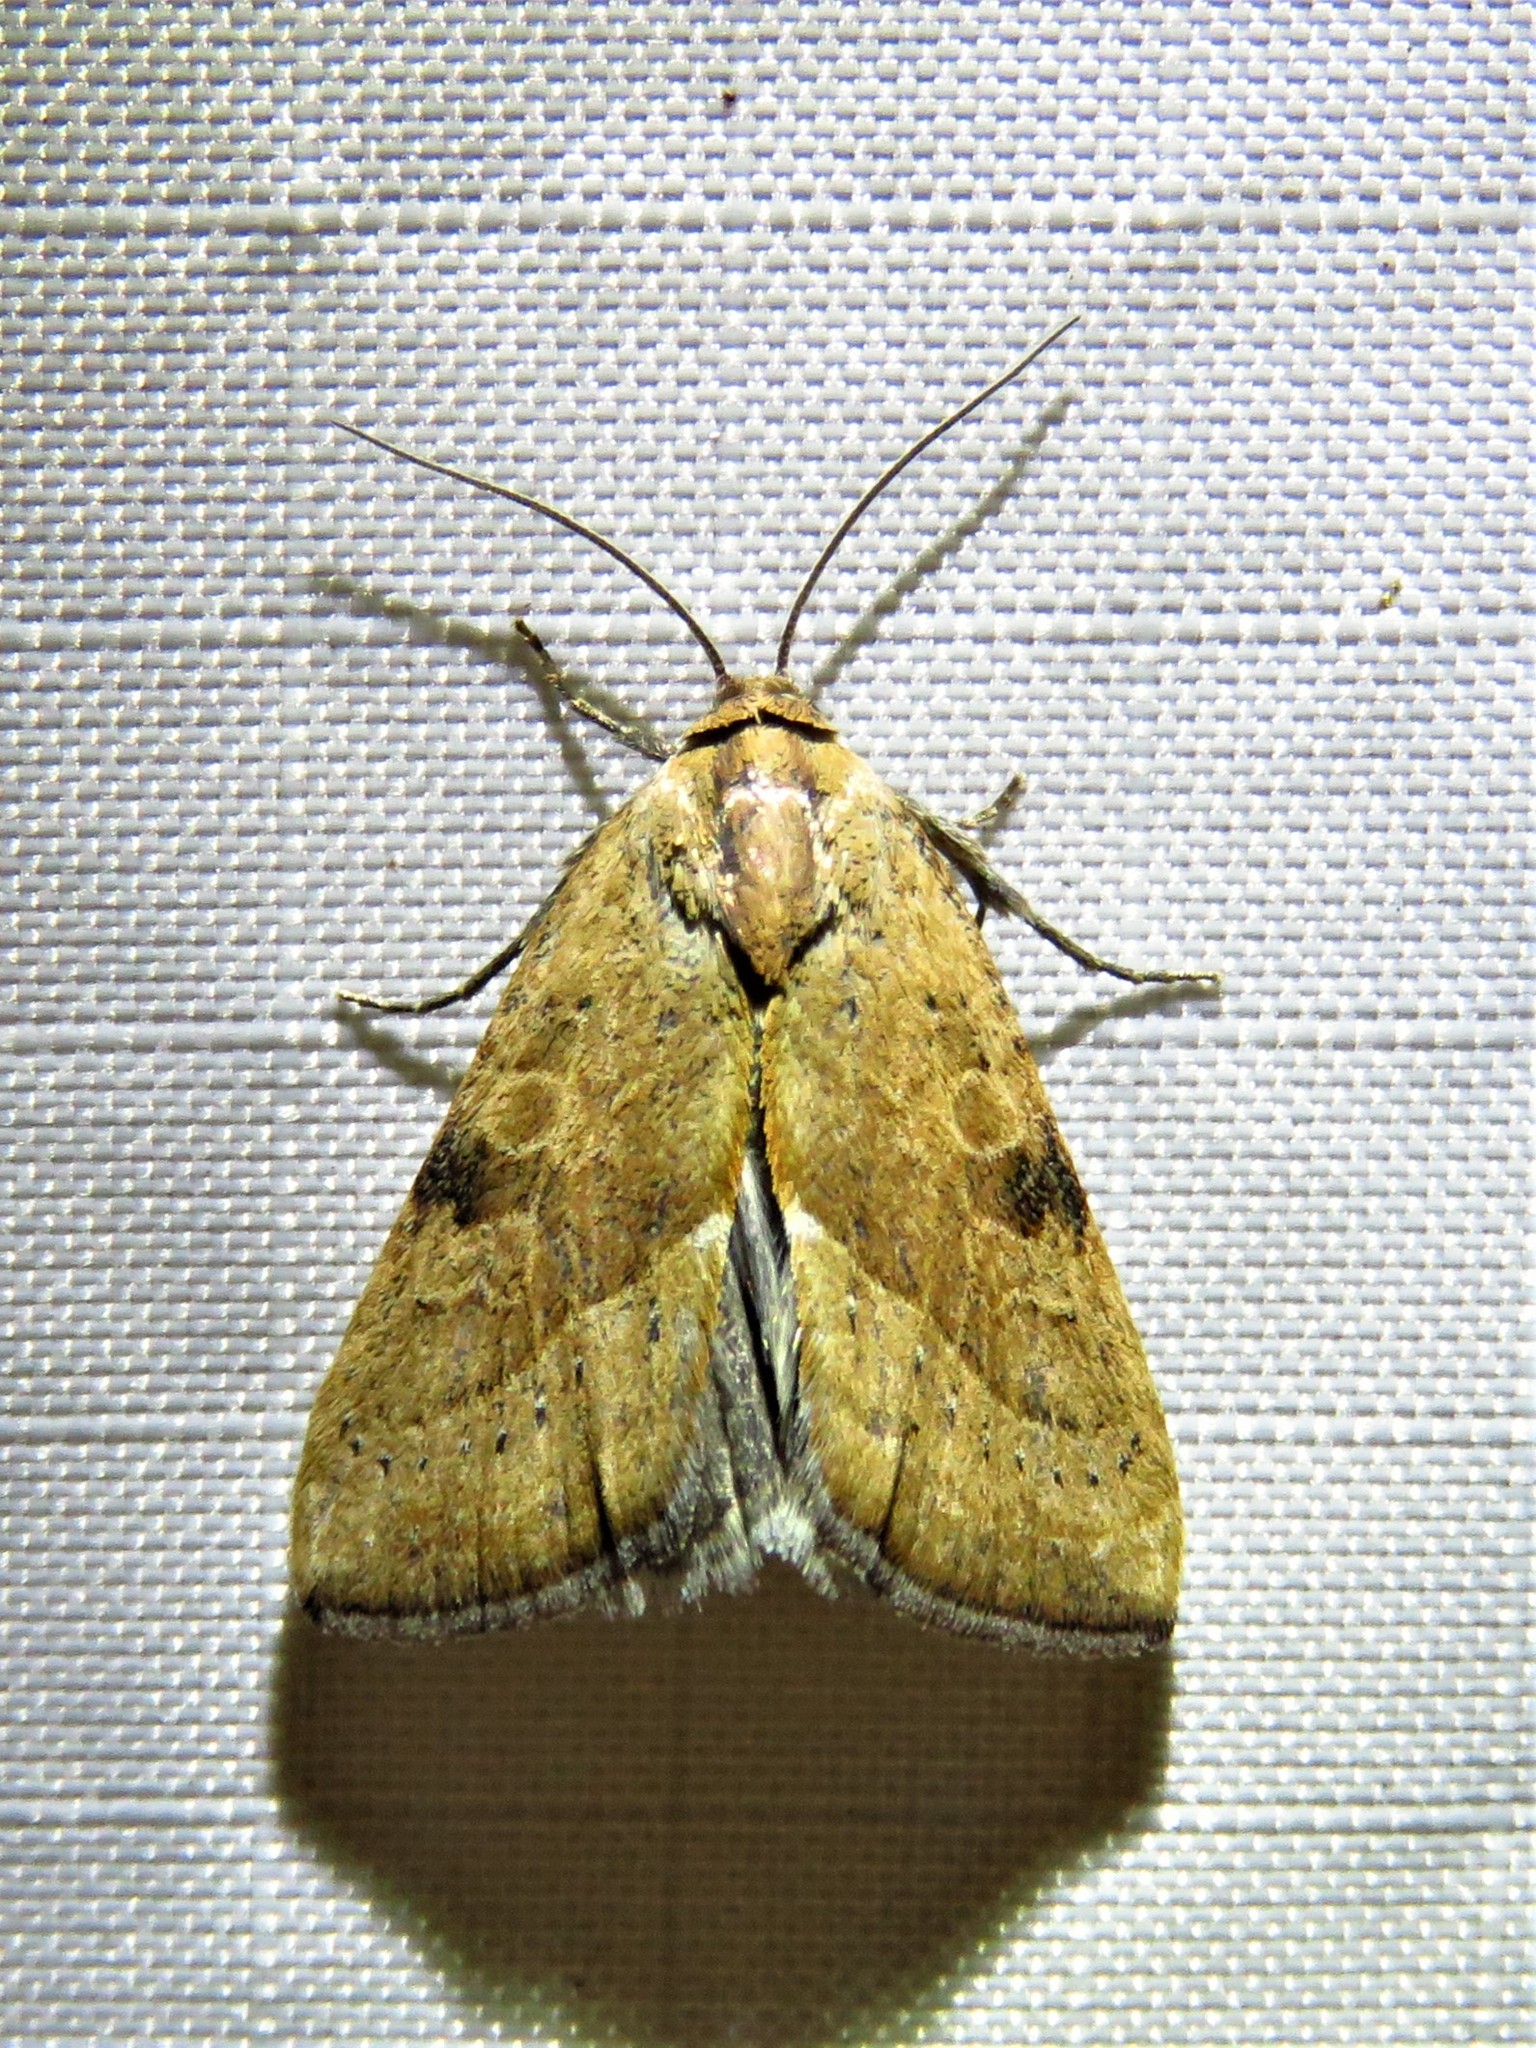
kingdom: Animalia
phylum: Arthropoda
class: Insecta
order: Lepidoptera
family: Noctuidae
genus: Galgula
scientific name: Galgula partita
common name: Wedgeling
